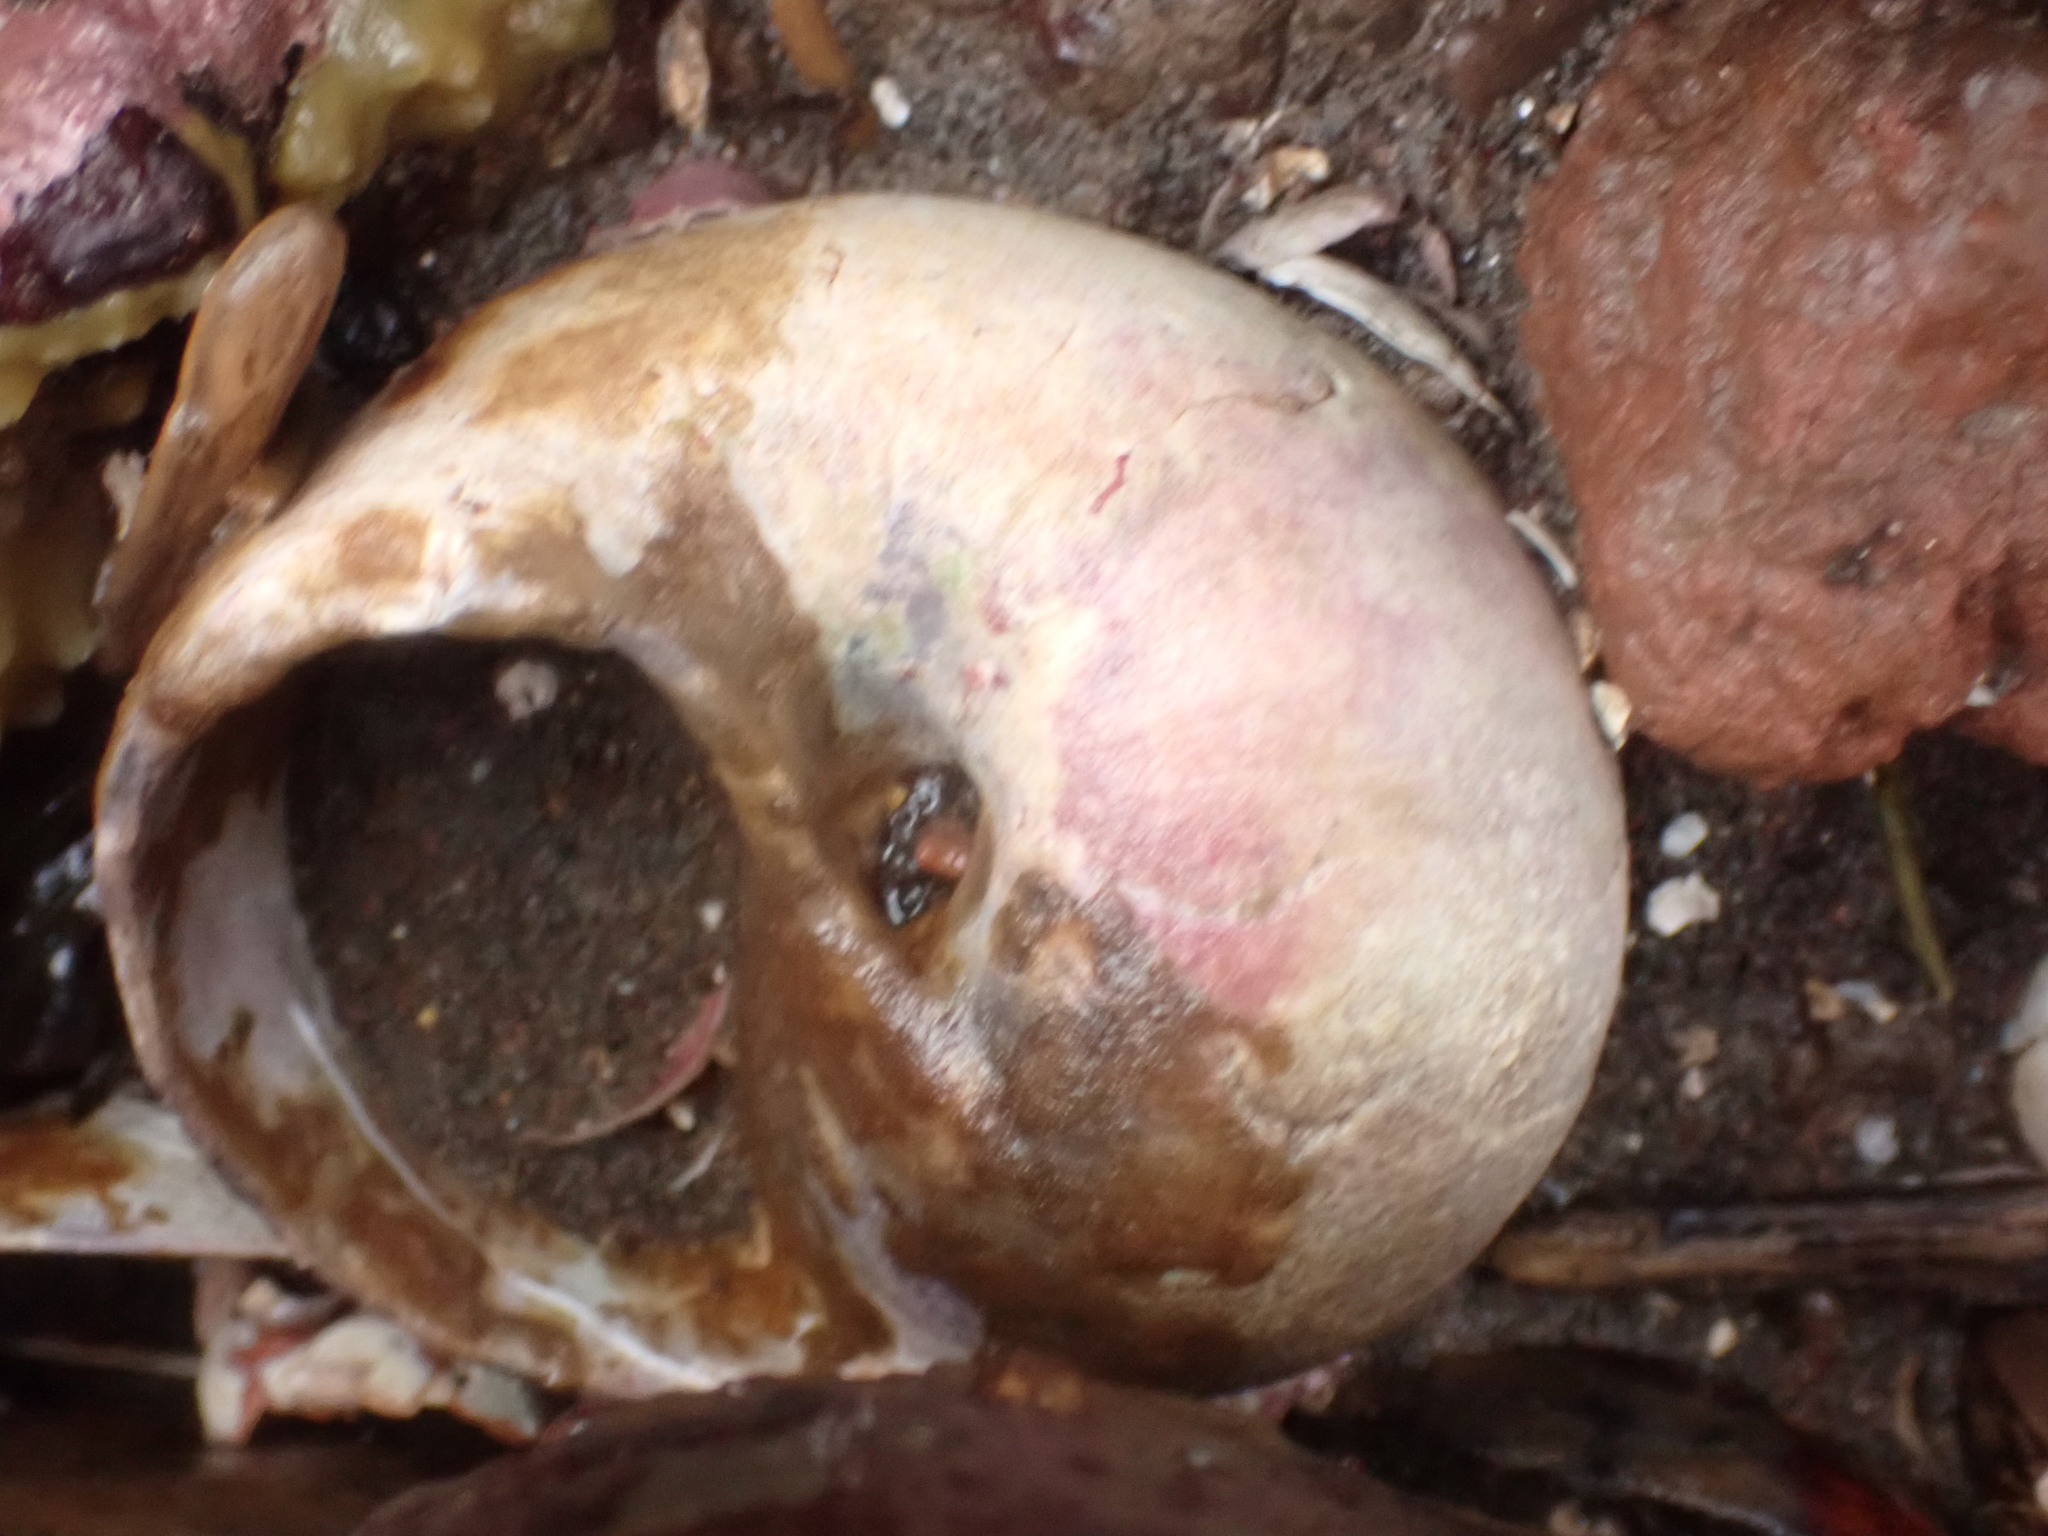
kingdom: Animalia
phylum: Mollusca
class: Gastropoda
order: Littorinimorpha
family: Naticidae
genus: Euspira
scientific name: Euspira heros
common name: Common northern moonsnail
